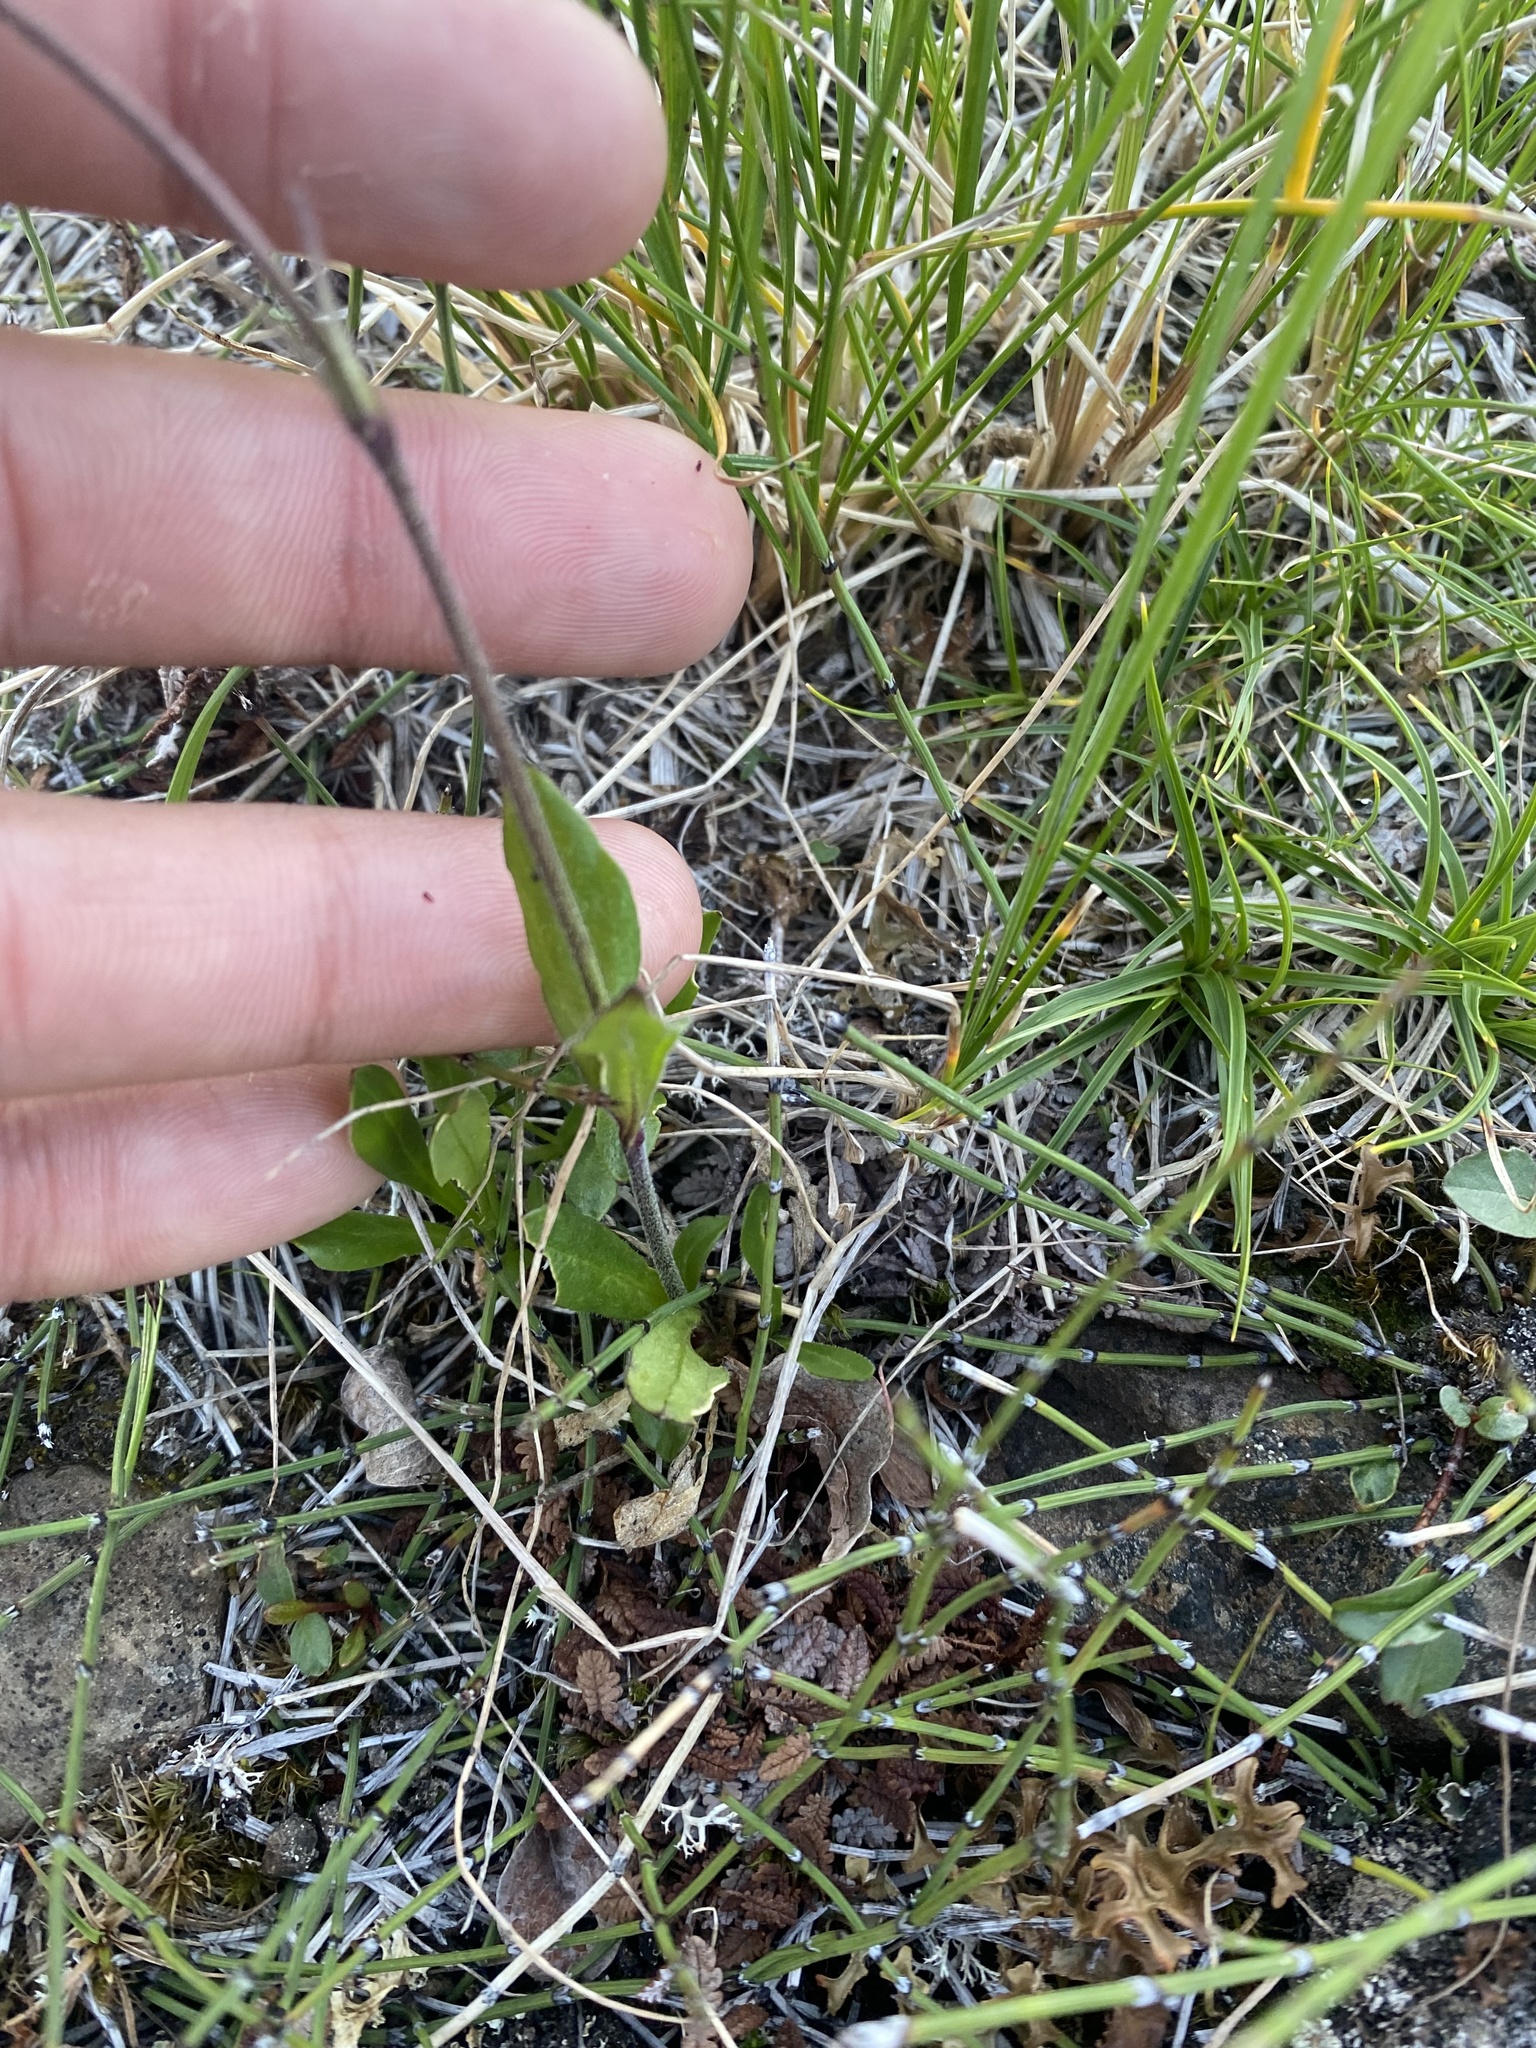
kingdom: Plantae
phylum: Tracheophyta
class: Magnoliopsida
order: Caryophyllales
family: Caryophyllaceae
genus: Silene
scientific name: Silene wahlbergella
